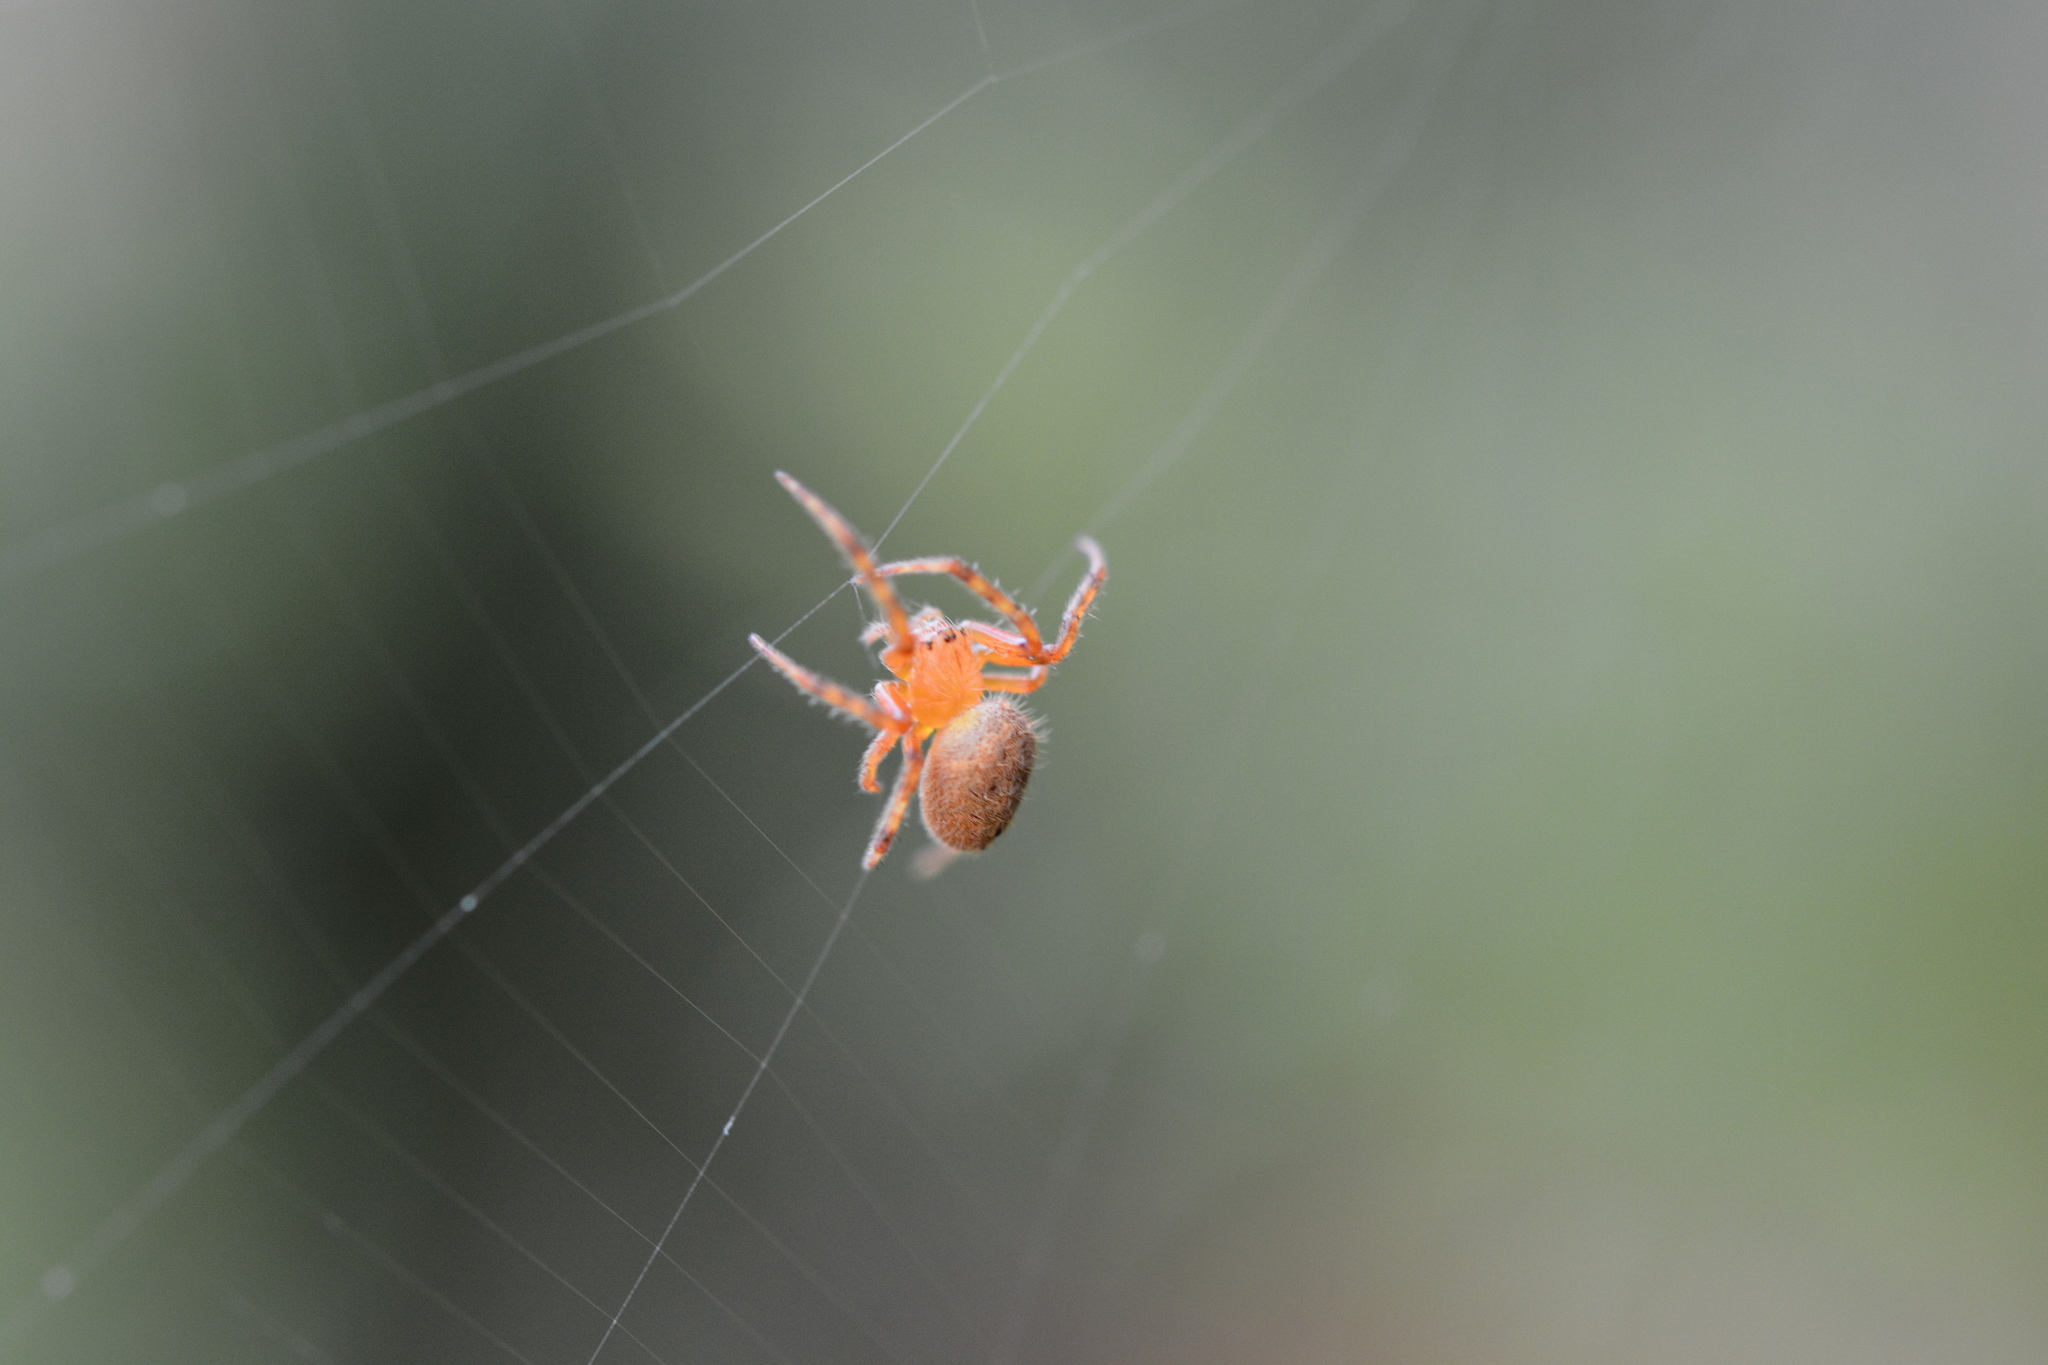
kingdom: Animalia
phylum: Arthropoda
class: Arachnida
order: Araneae
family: Araneidae
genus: Neoscona
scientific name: Neoscona crucifera
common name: Spotted orbweaver
